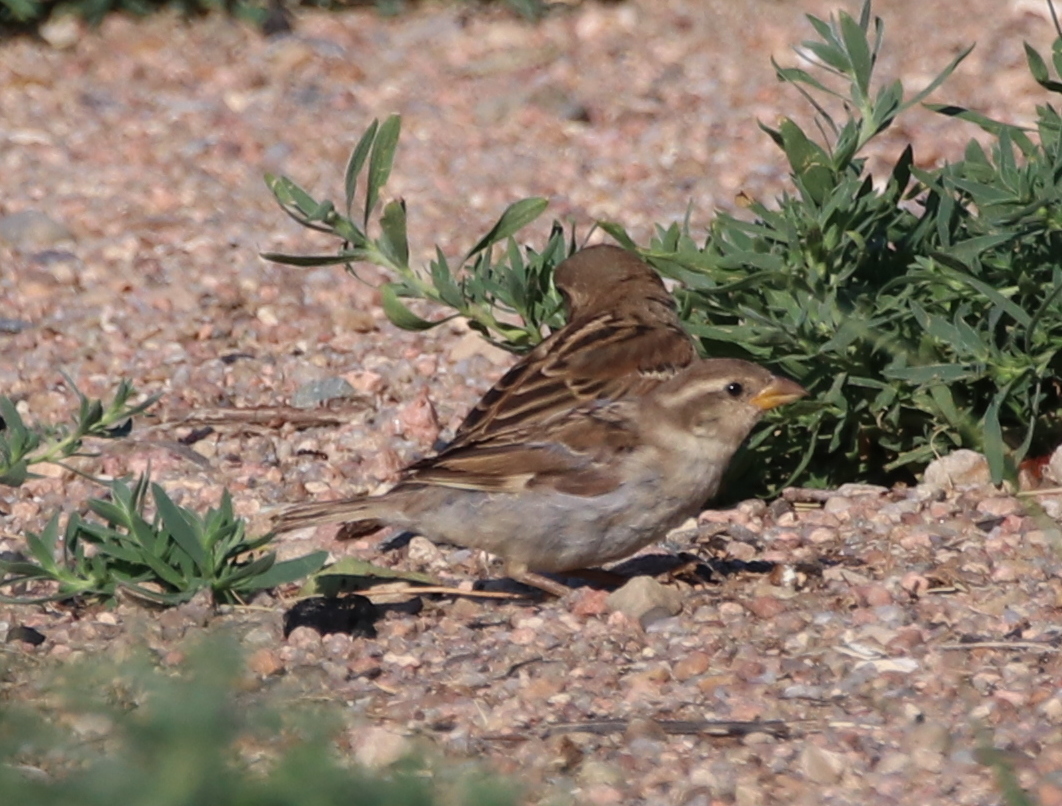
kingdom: Animalia
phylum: Chordata
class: Aves
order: Passeriformes
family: Passeridae
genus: Passer
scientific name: Passer domesticus
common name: House sparrow
